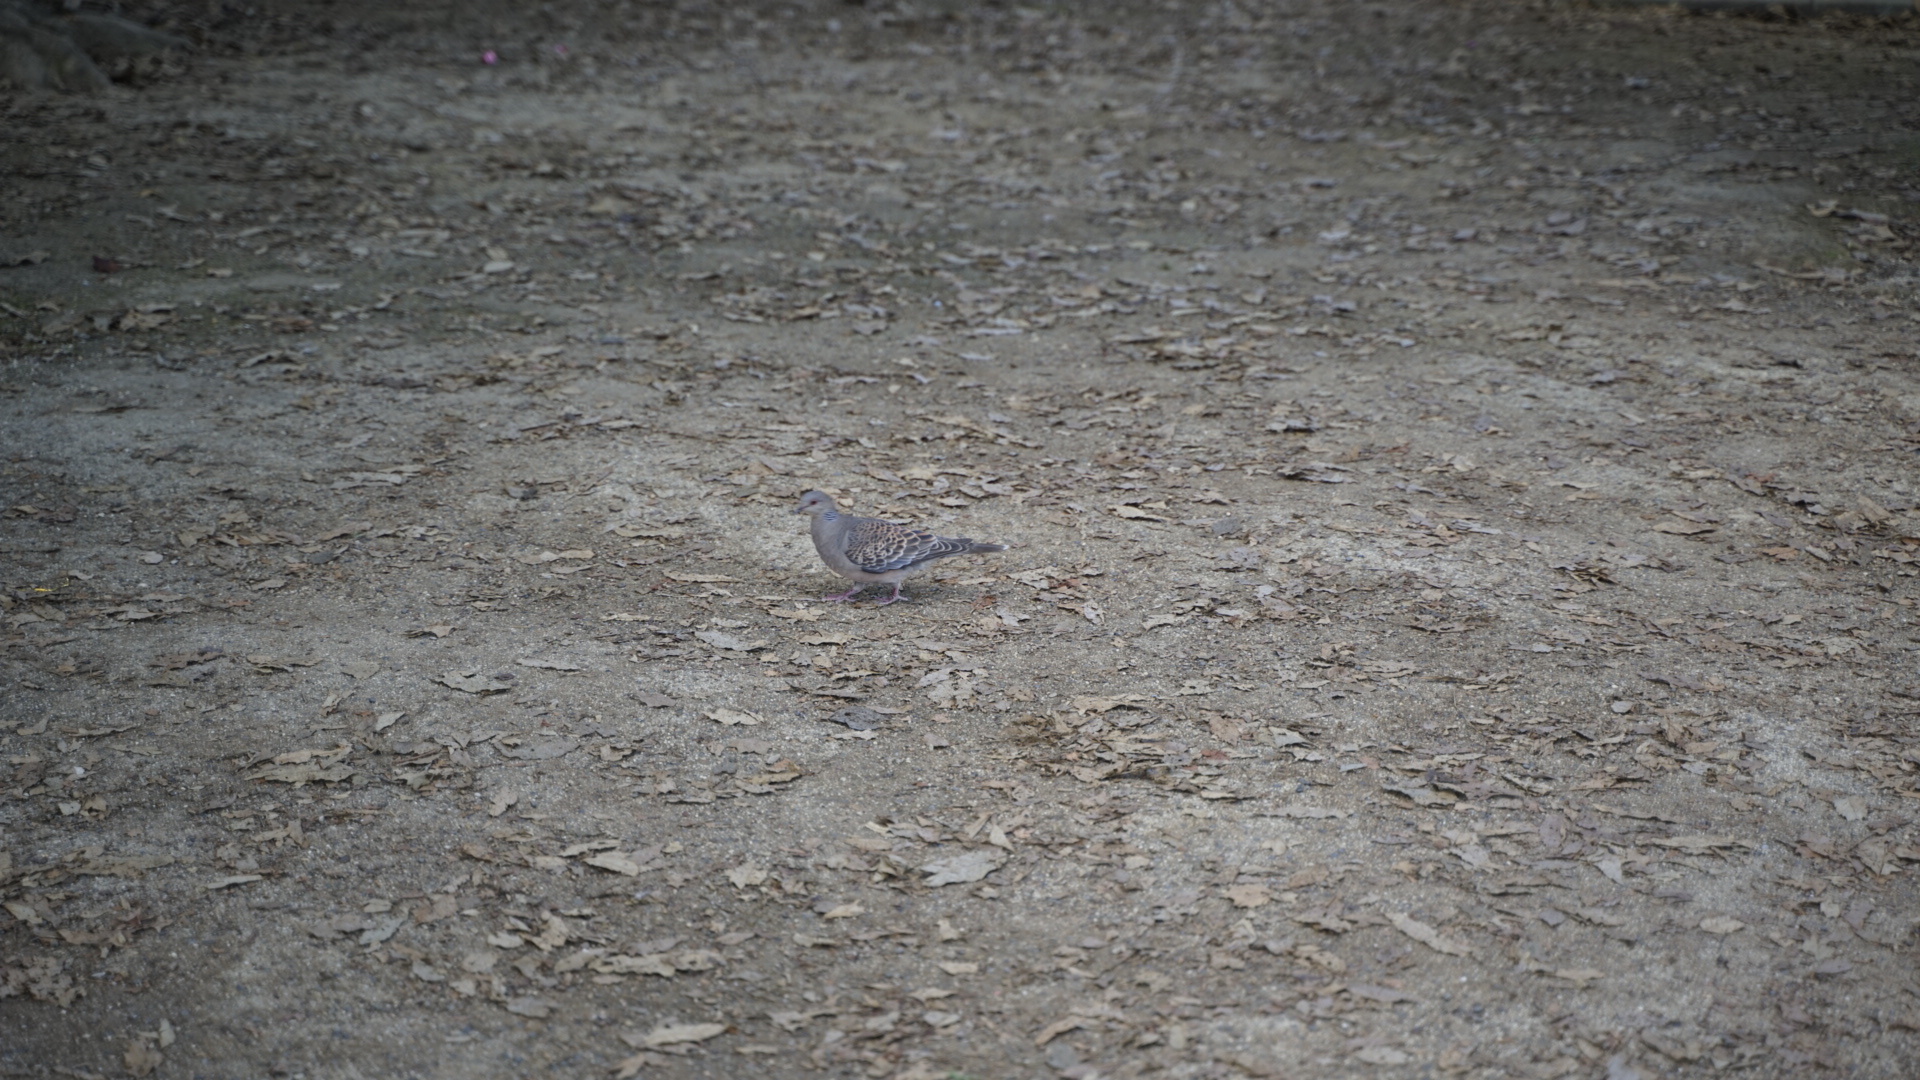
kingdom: Animalia
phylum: Chordata
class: Aves
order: Columbiformes
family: Columbidae
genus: Streptopelia
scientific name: Streptopelia orientalis
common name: Oriental turtle dove
